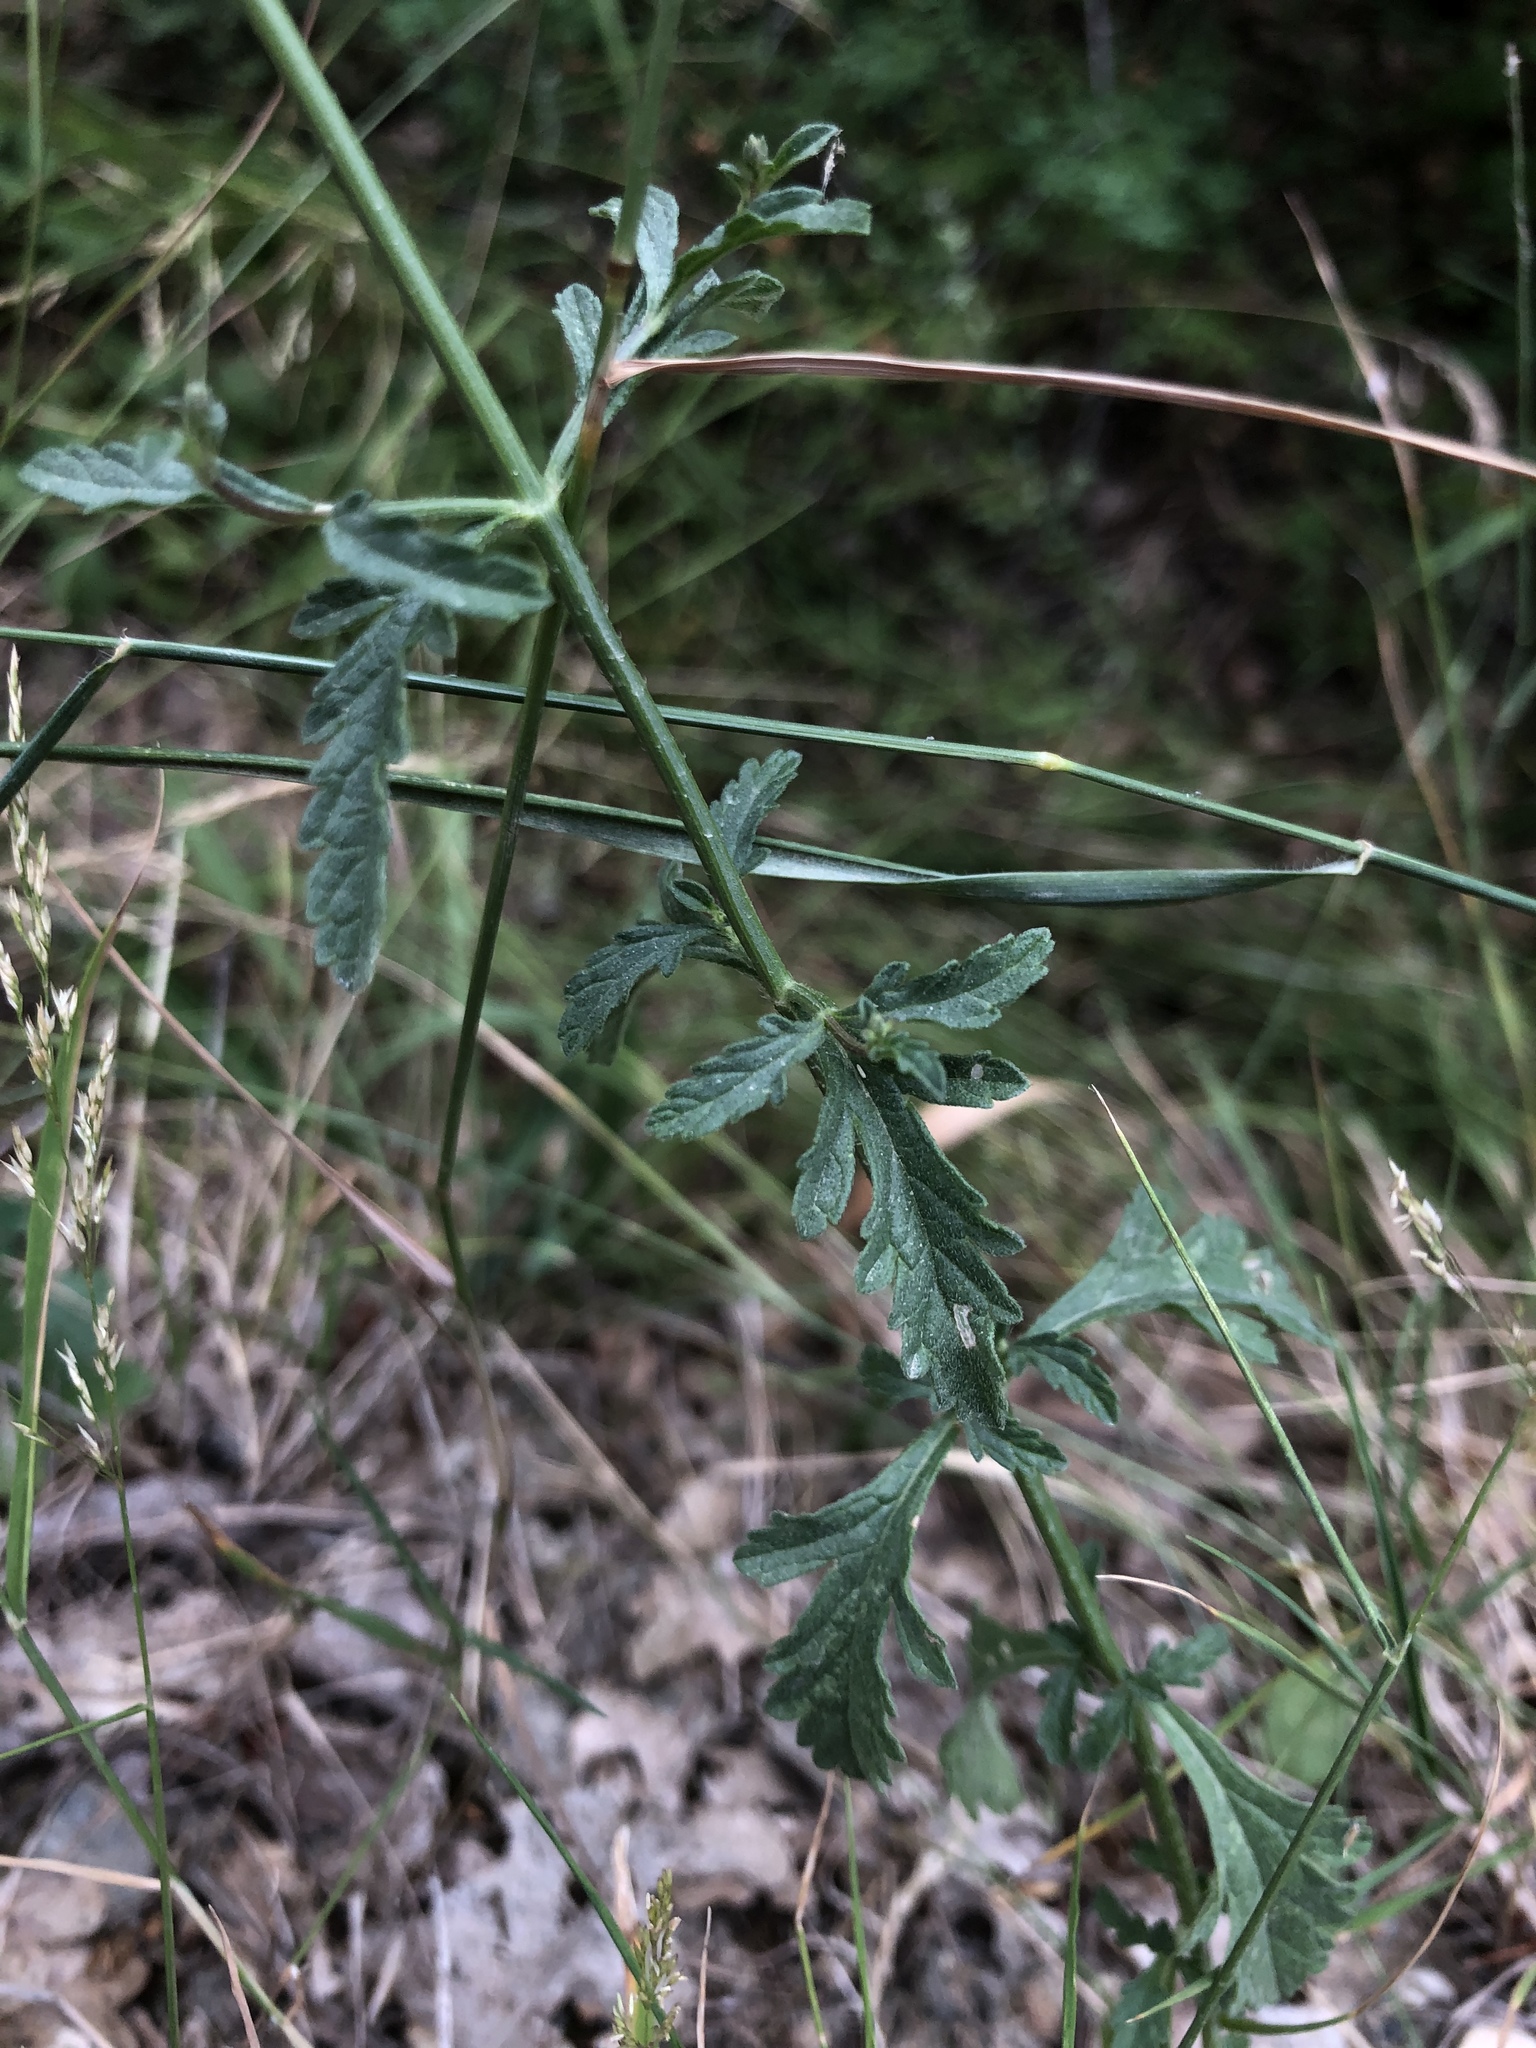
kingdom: Plantae
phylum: Tracheophyta
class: Magnoliopsida
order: Lamiales
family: Verbenaceae
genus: Verbena
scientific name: Verbena officinalis
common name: Vervain
